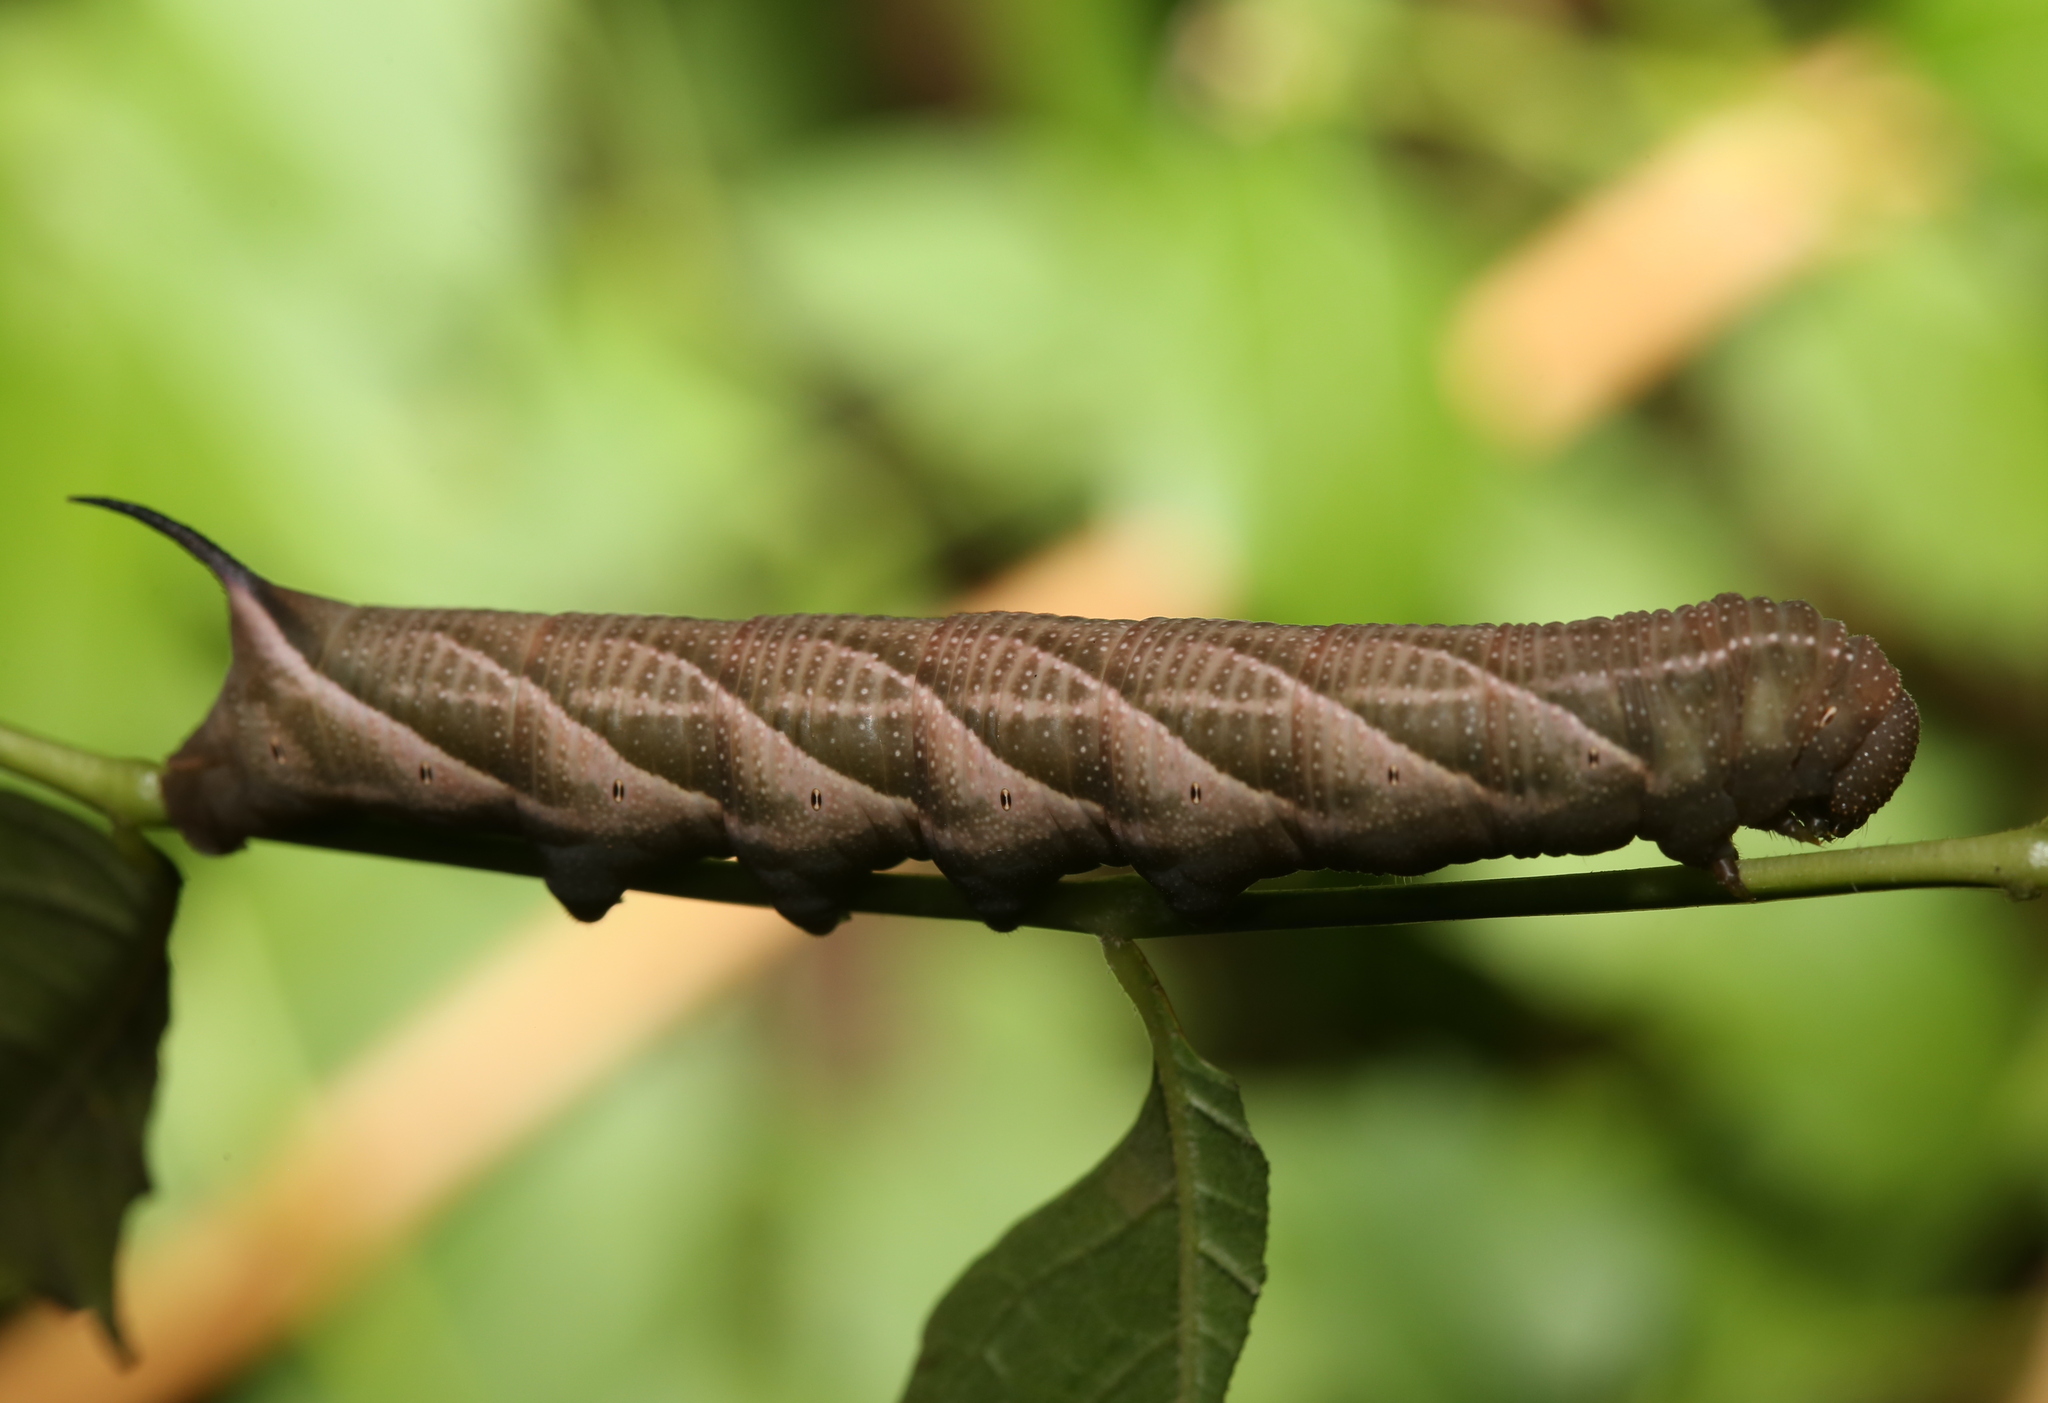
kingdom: Animalia
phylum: Arthropoda
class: Insecta
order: Lepidoptera
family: Sphingidae
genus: Paratrea
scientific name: Paratrea plebeja
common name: Plebian sphinx
